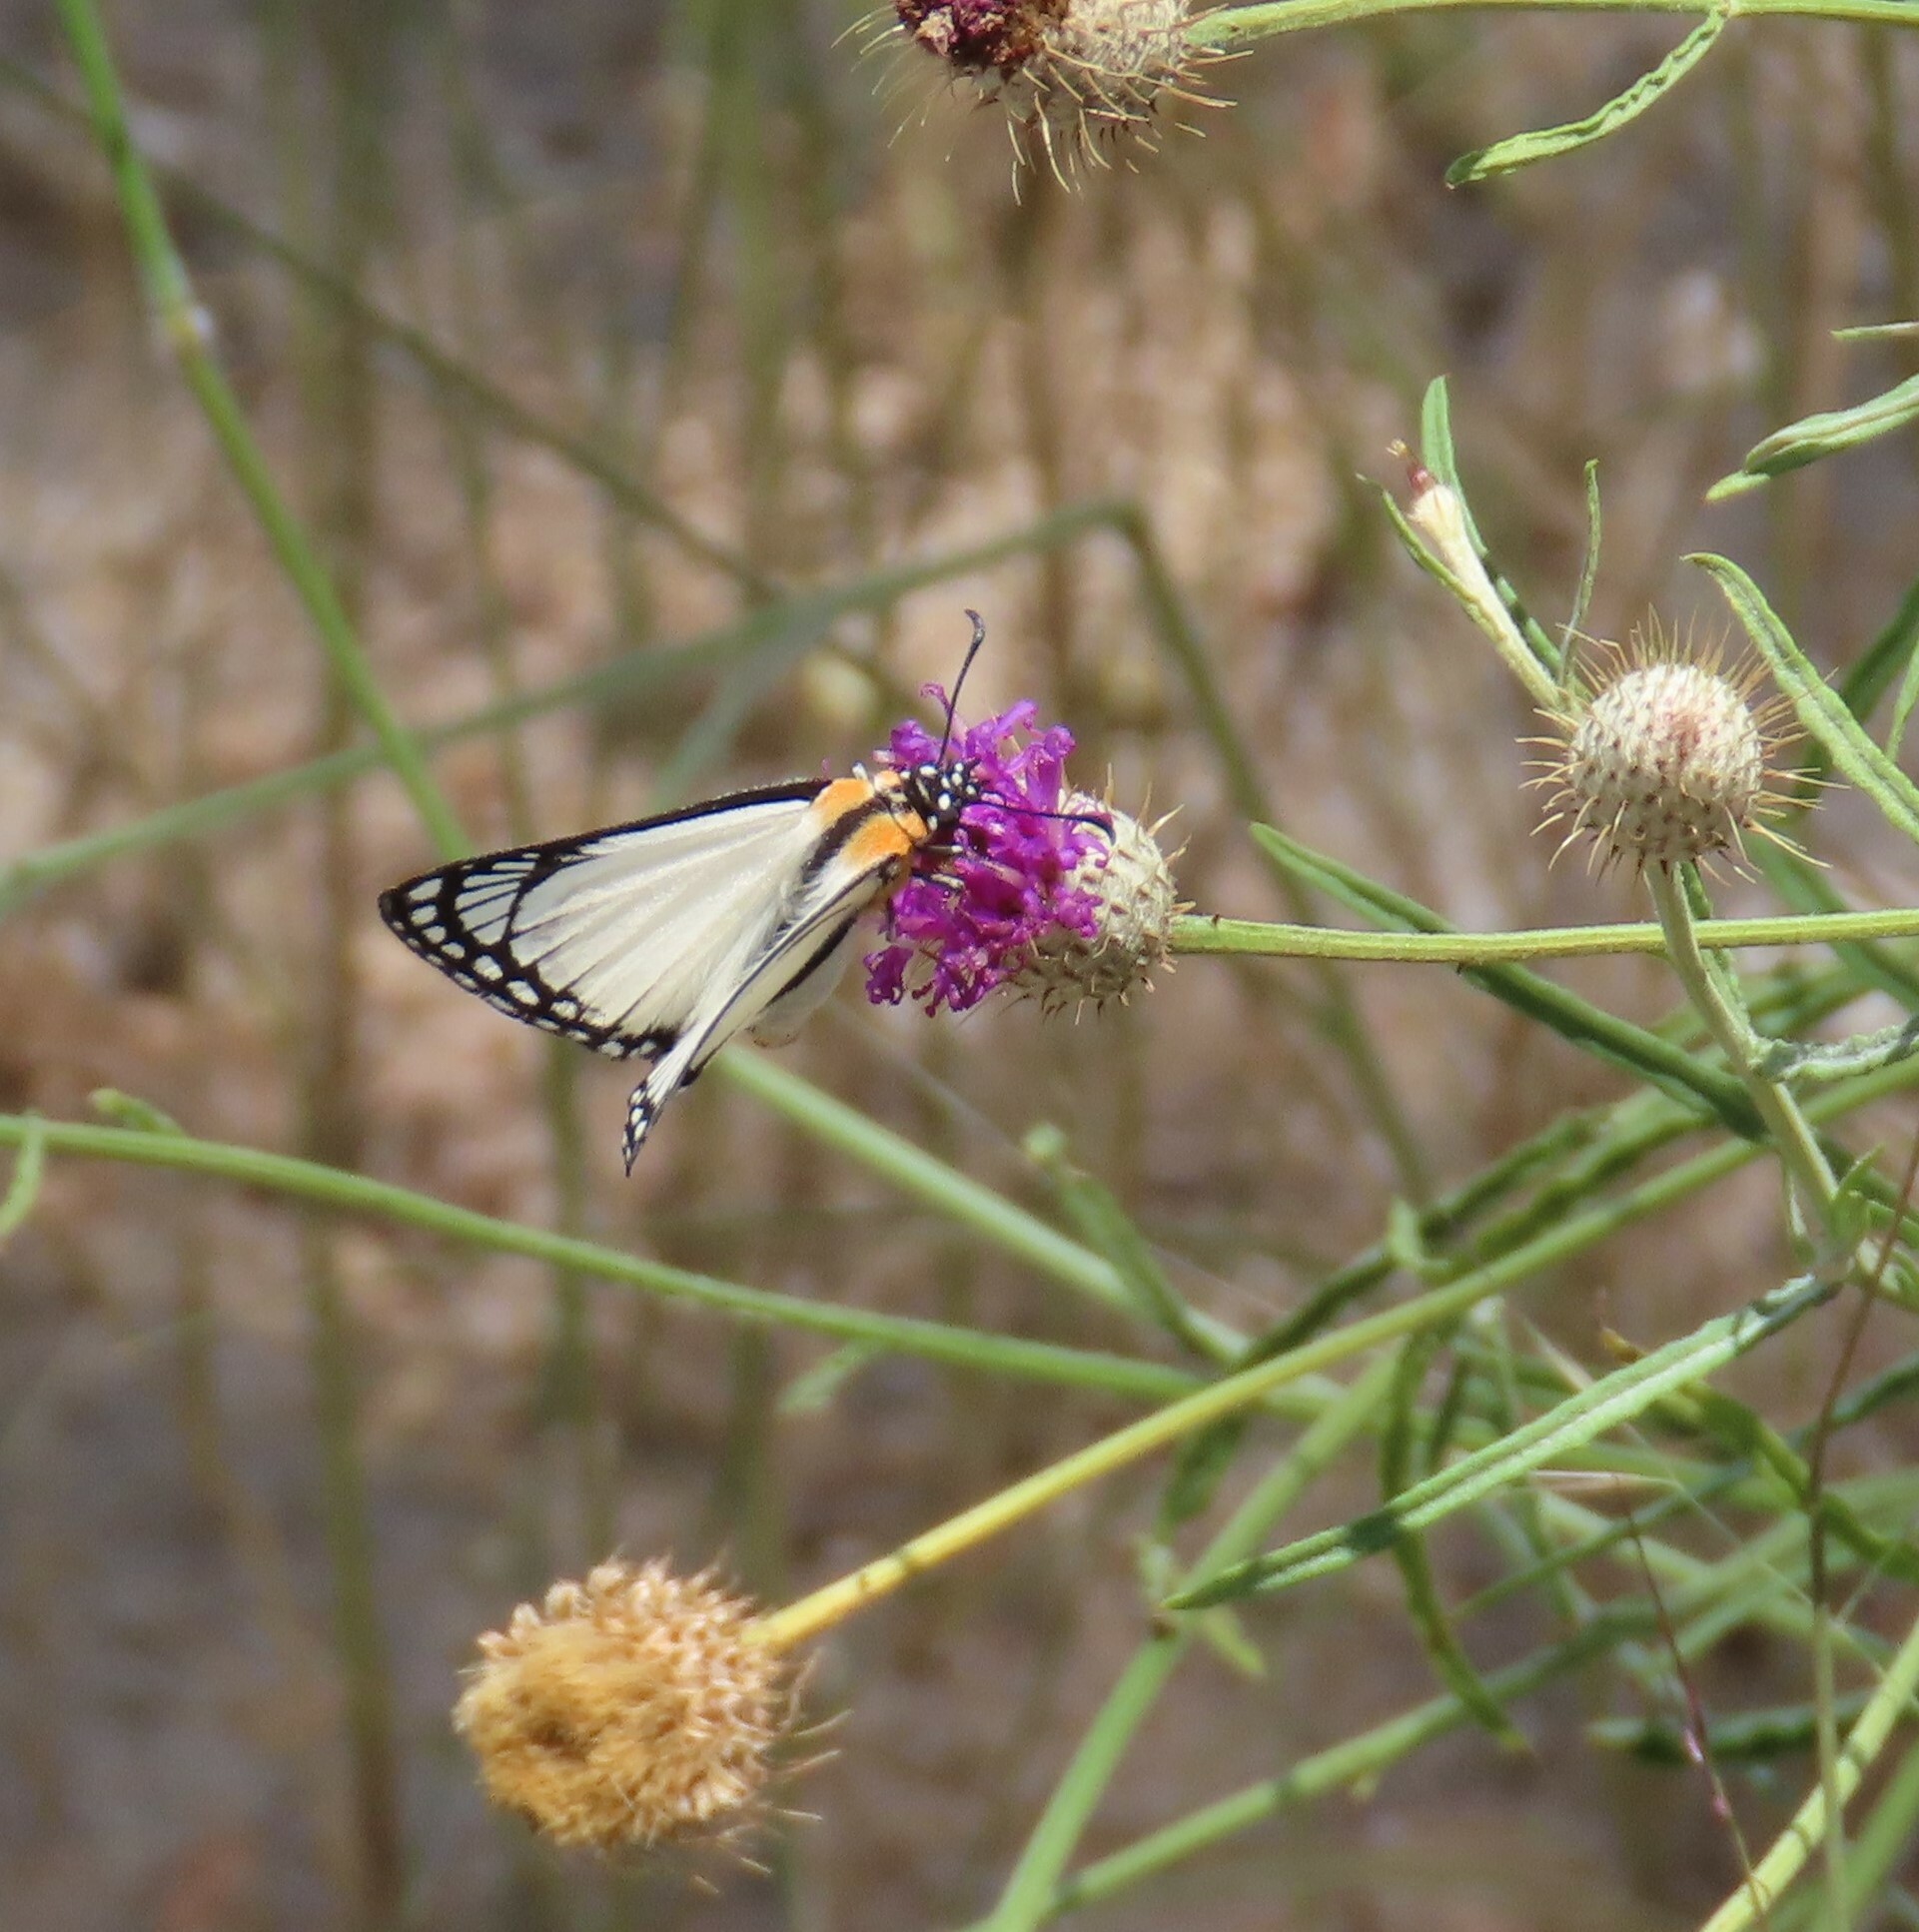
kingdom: Animalia
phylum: Arthropoda
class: Insecta
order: Lepidoptera
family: Hesperiidae
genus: Abantis
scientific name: Abantis
